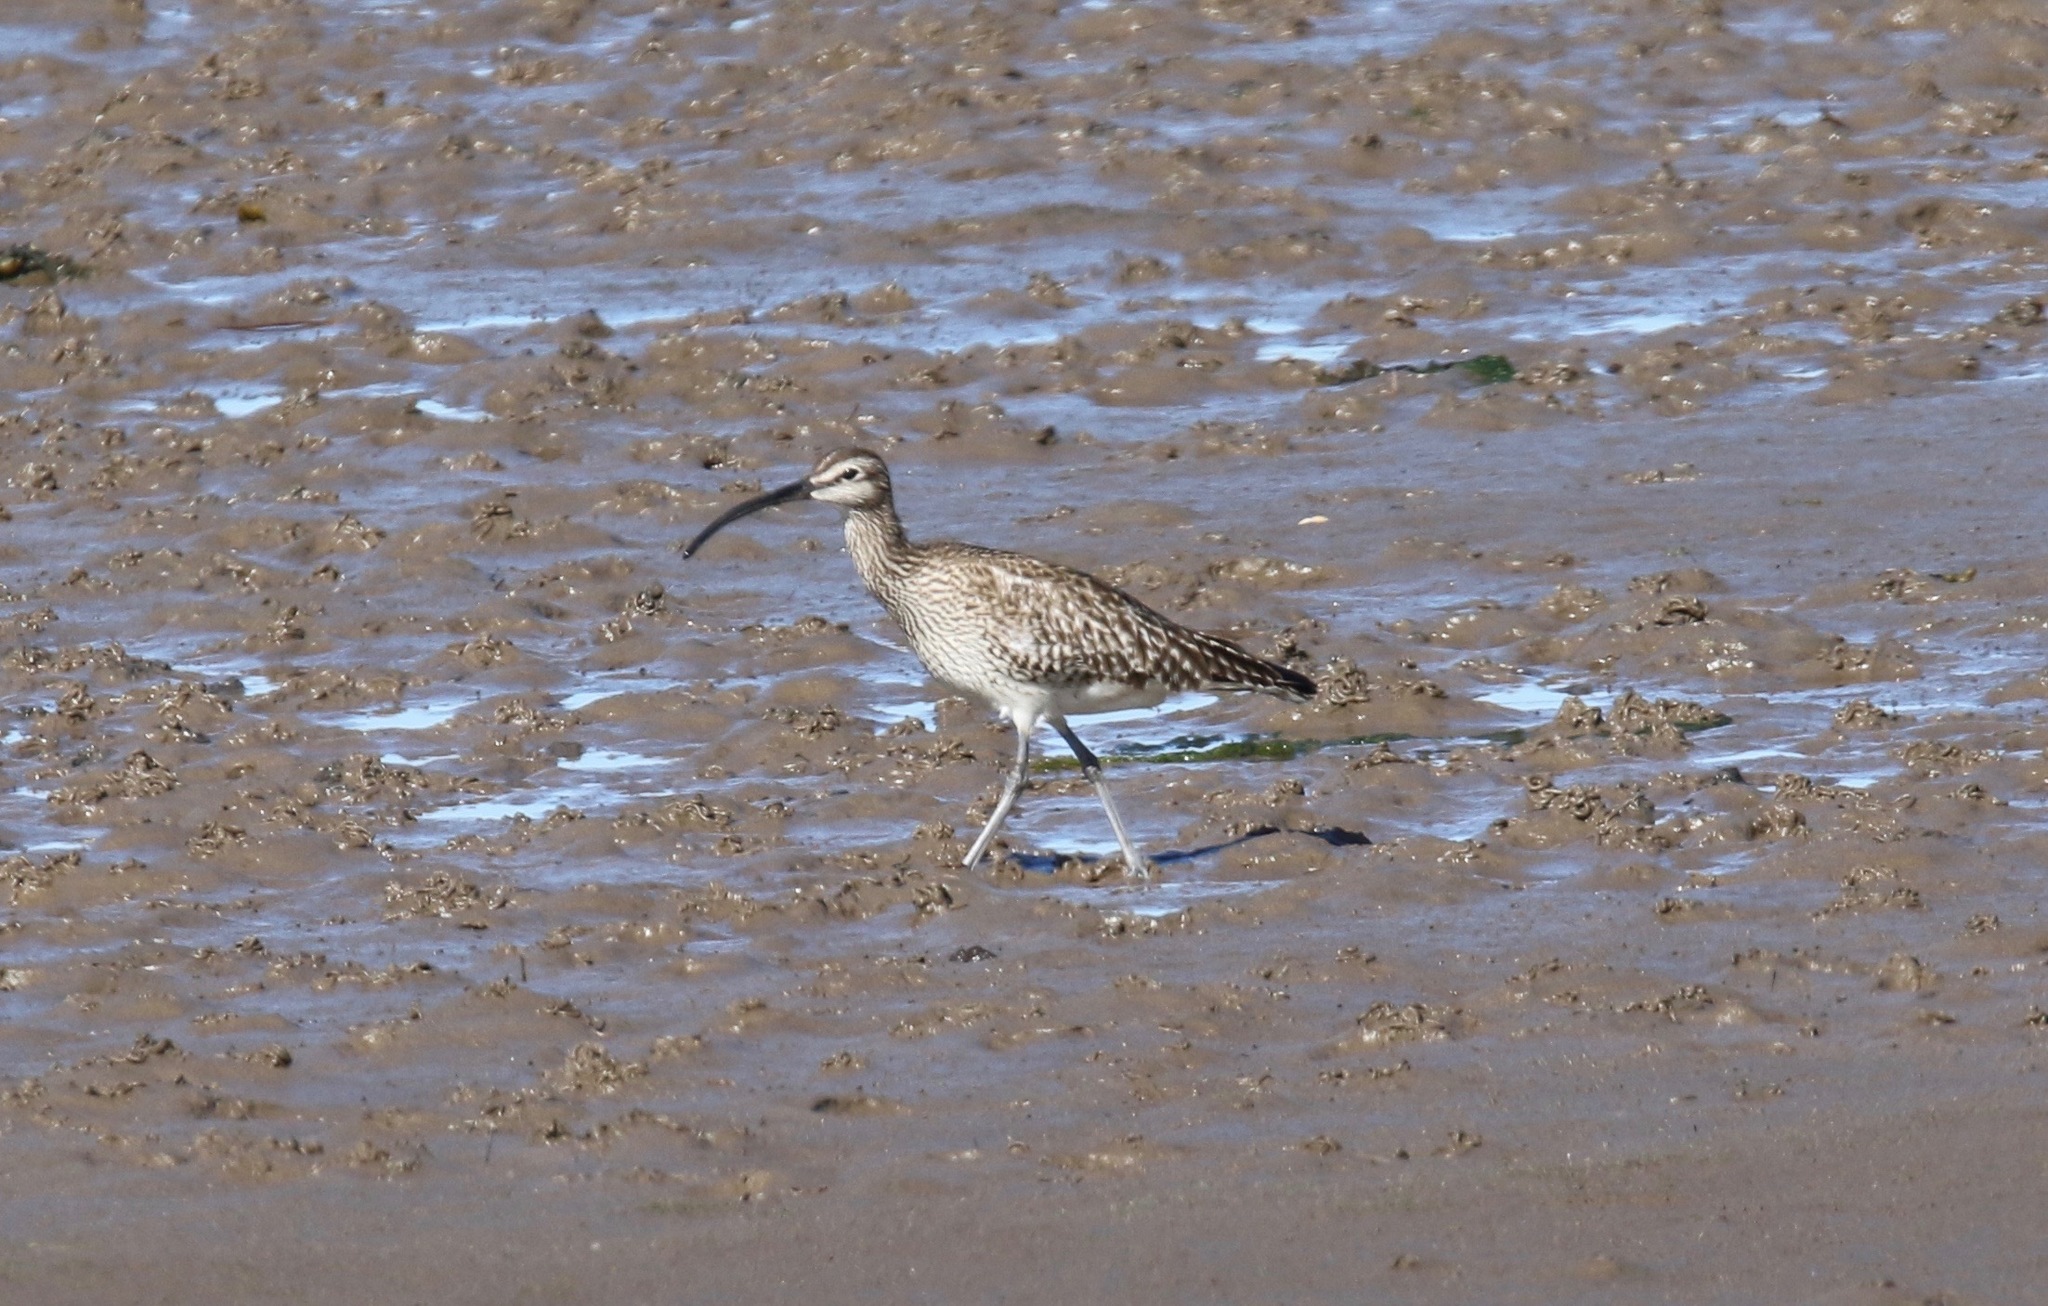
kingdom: Animalia
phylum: Chordata
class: Aves
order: Charadriiformes
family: Scolopacidae
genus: Numenius
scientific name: Numenius phaeopus
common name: Whimbrel
